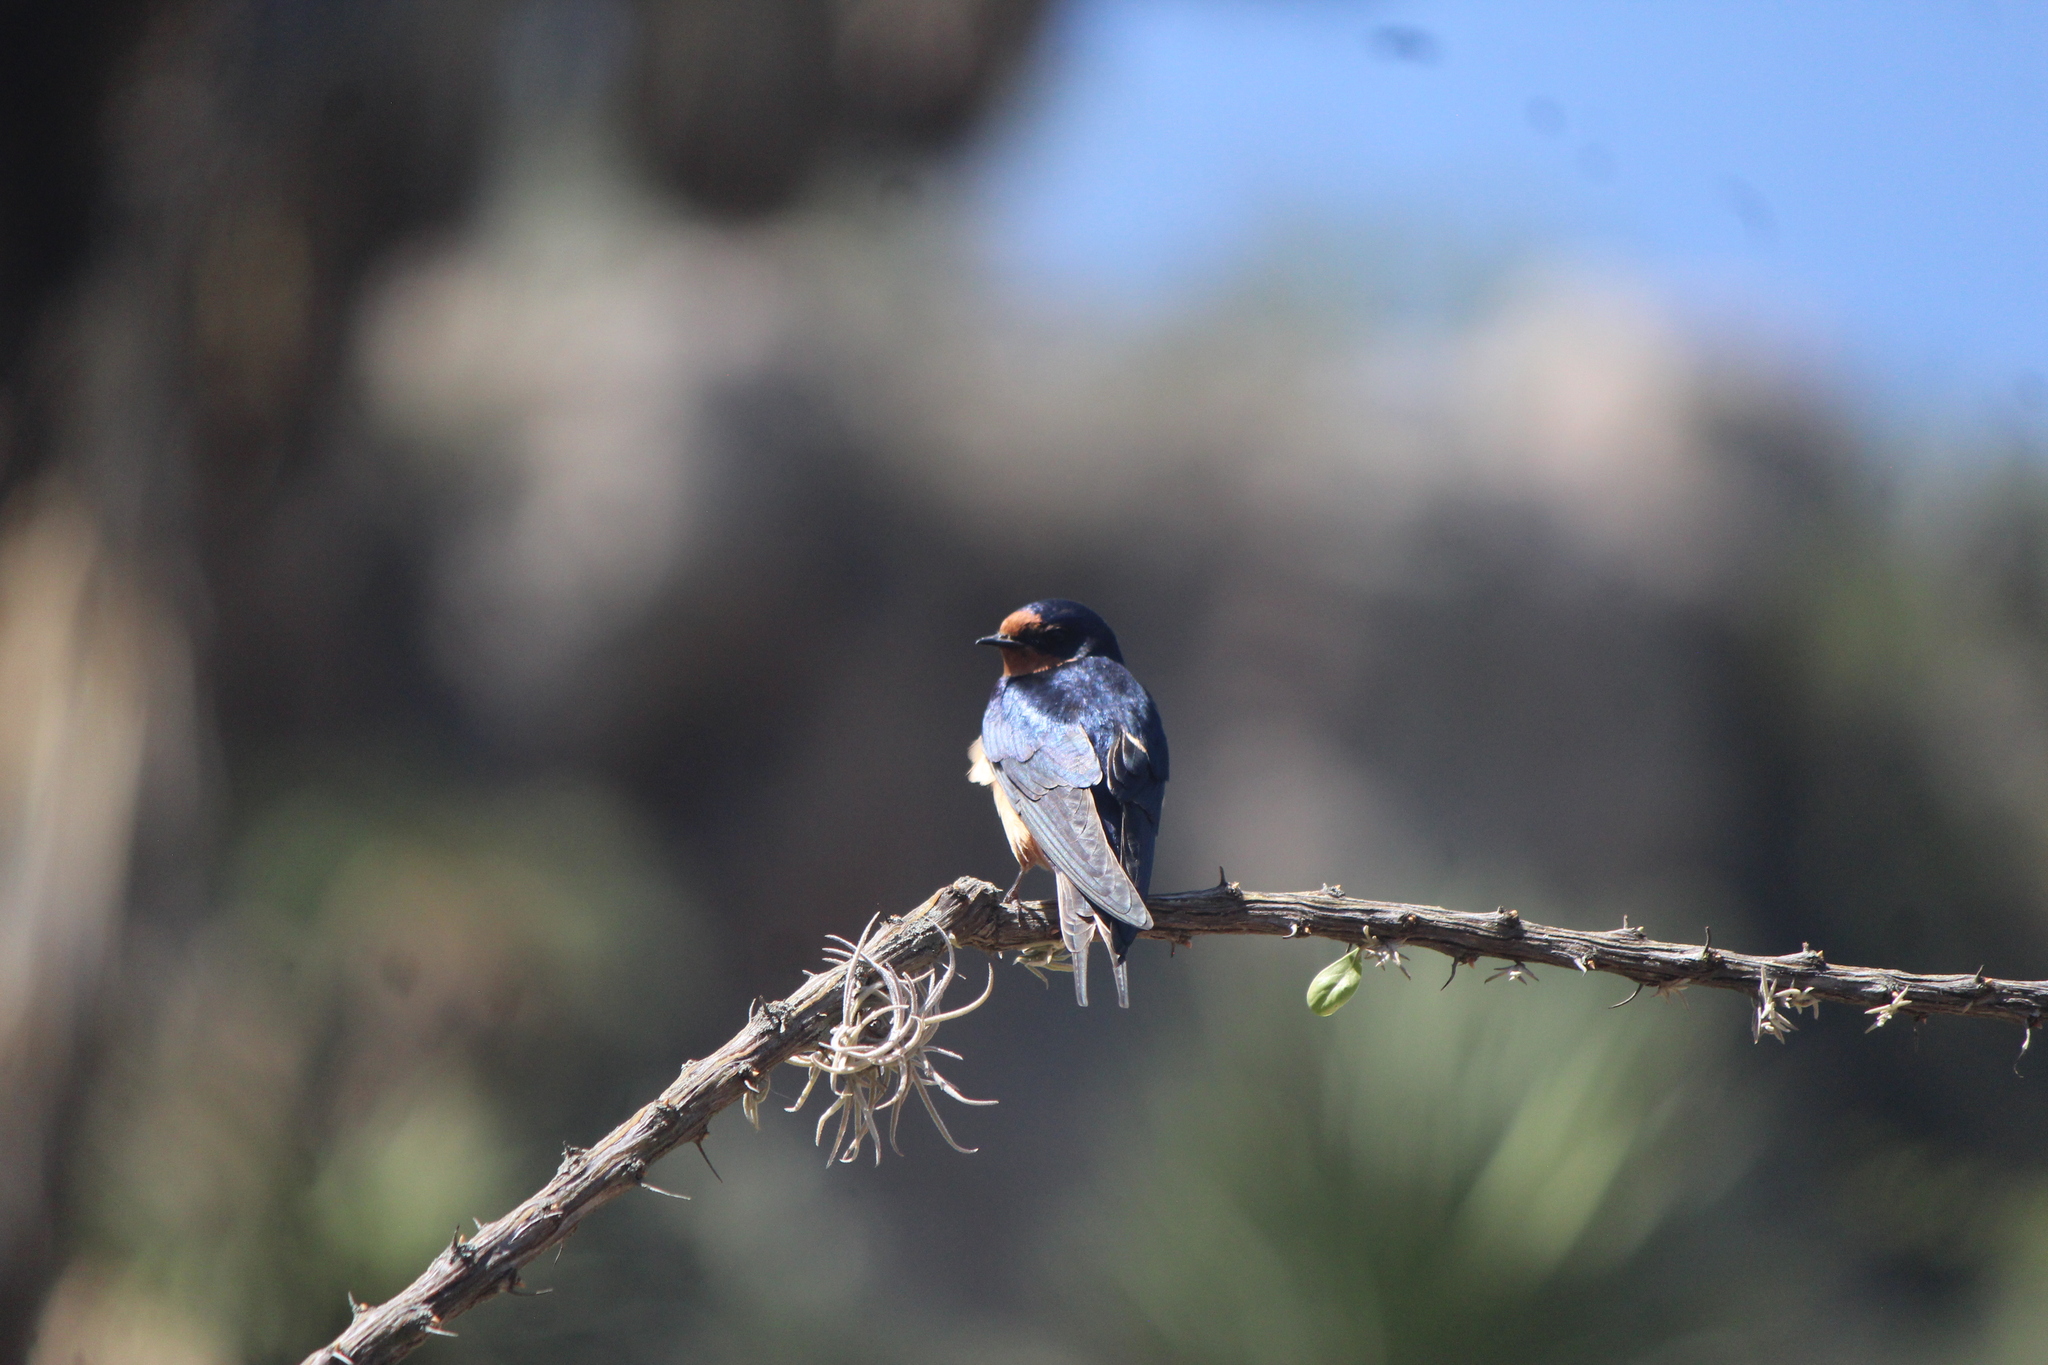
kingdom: Animalia
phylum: Chordata
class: Aves
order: Passeriformes
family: Hirundinidae
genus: Hirundo
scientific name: Hirundo rustica
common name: Barn swallow
